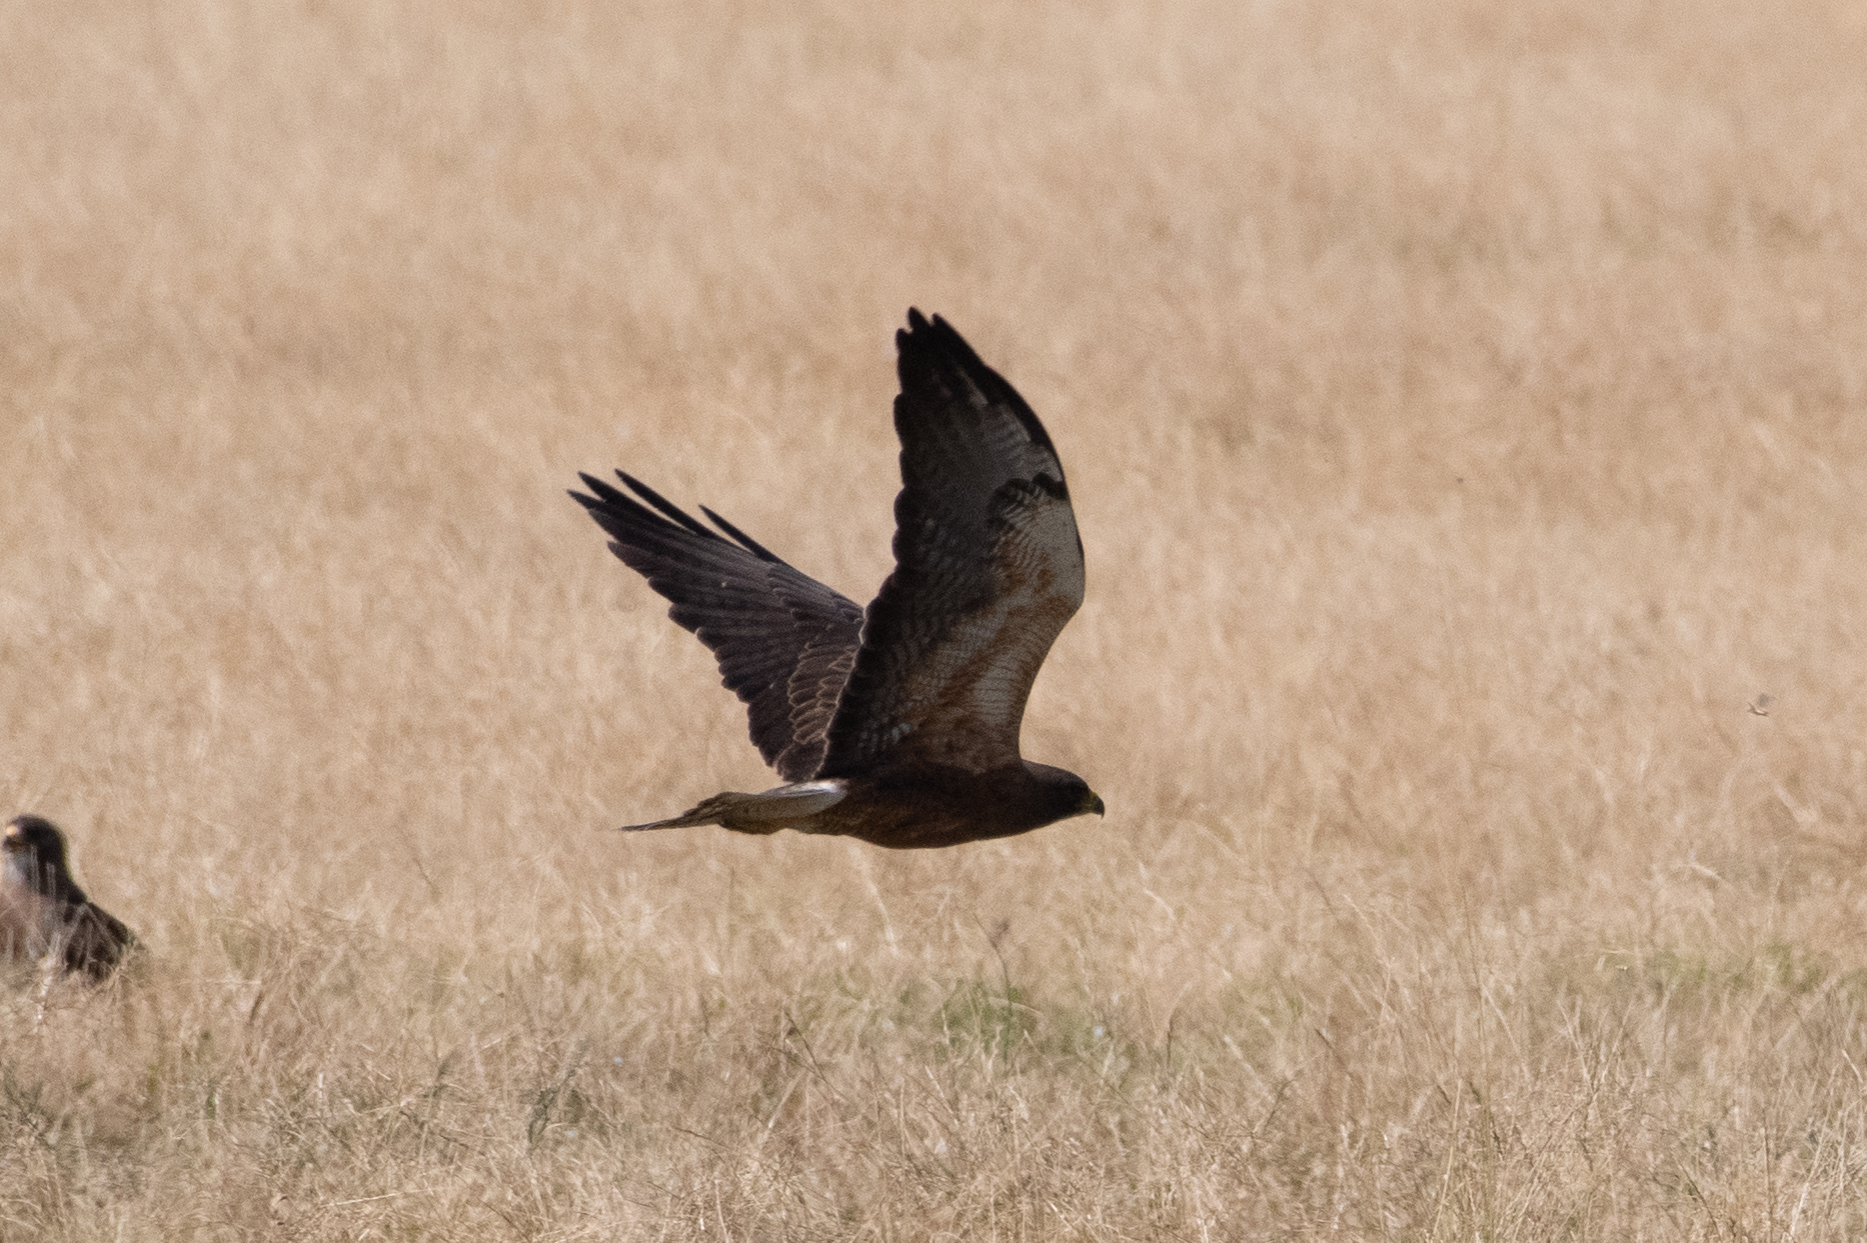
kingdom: Animalia
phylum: Chordata
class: Aves
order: Accipitriformes
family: Accipitridae
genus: Buteo
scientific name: Buteo swainsoni
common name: Swainson's hawk
